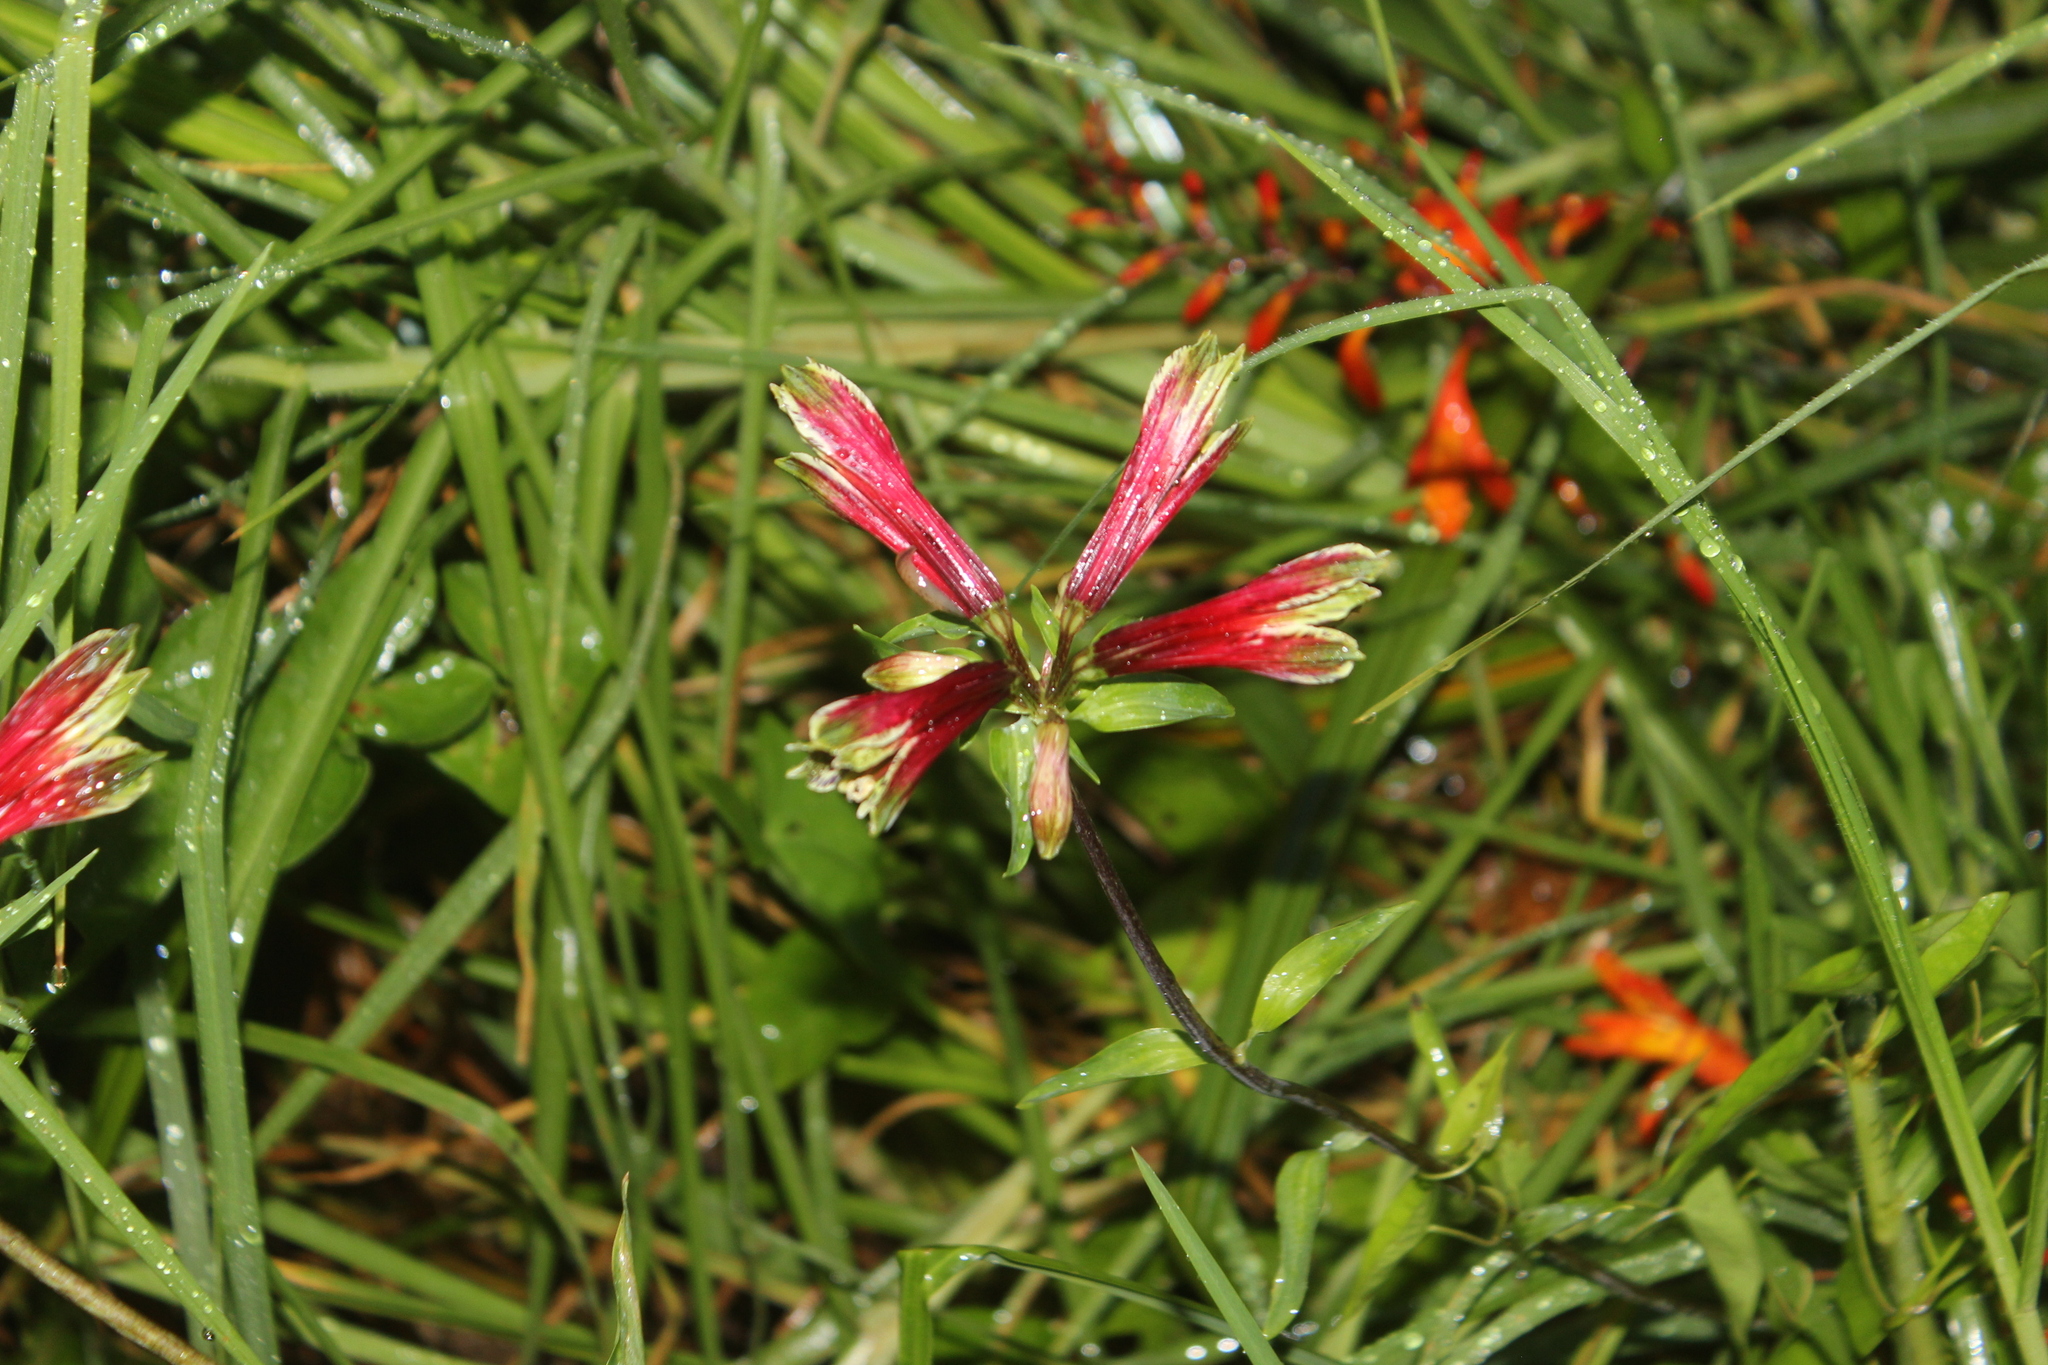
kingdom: Plantae
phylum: Tracheophyta
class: Liliopsida
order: Liliales
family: Alstroemeriaceae
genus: Alstroemeria
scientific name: Alstroemeria psittacina
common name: Peruvian-lily
